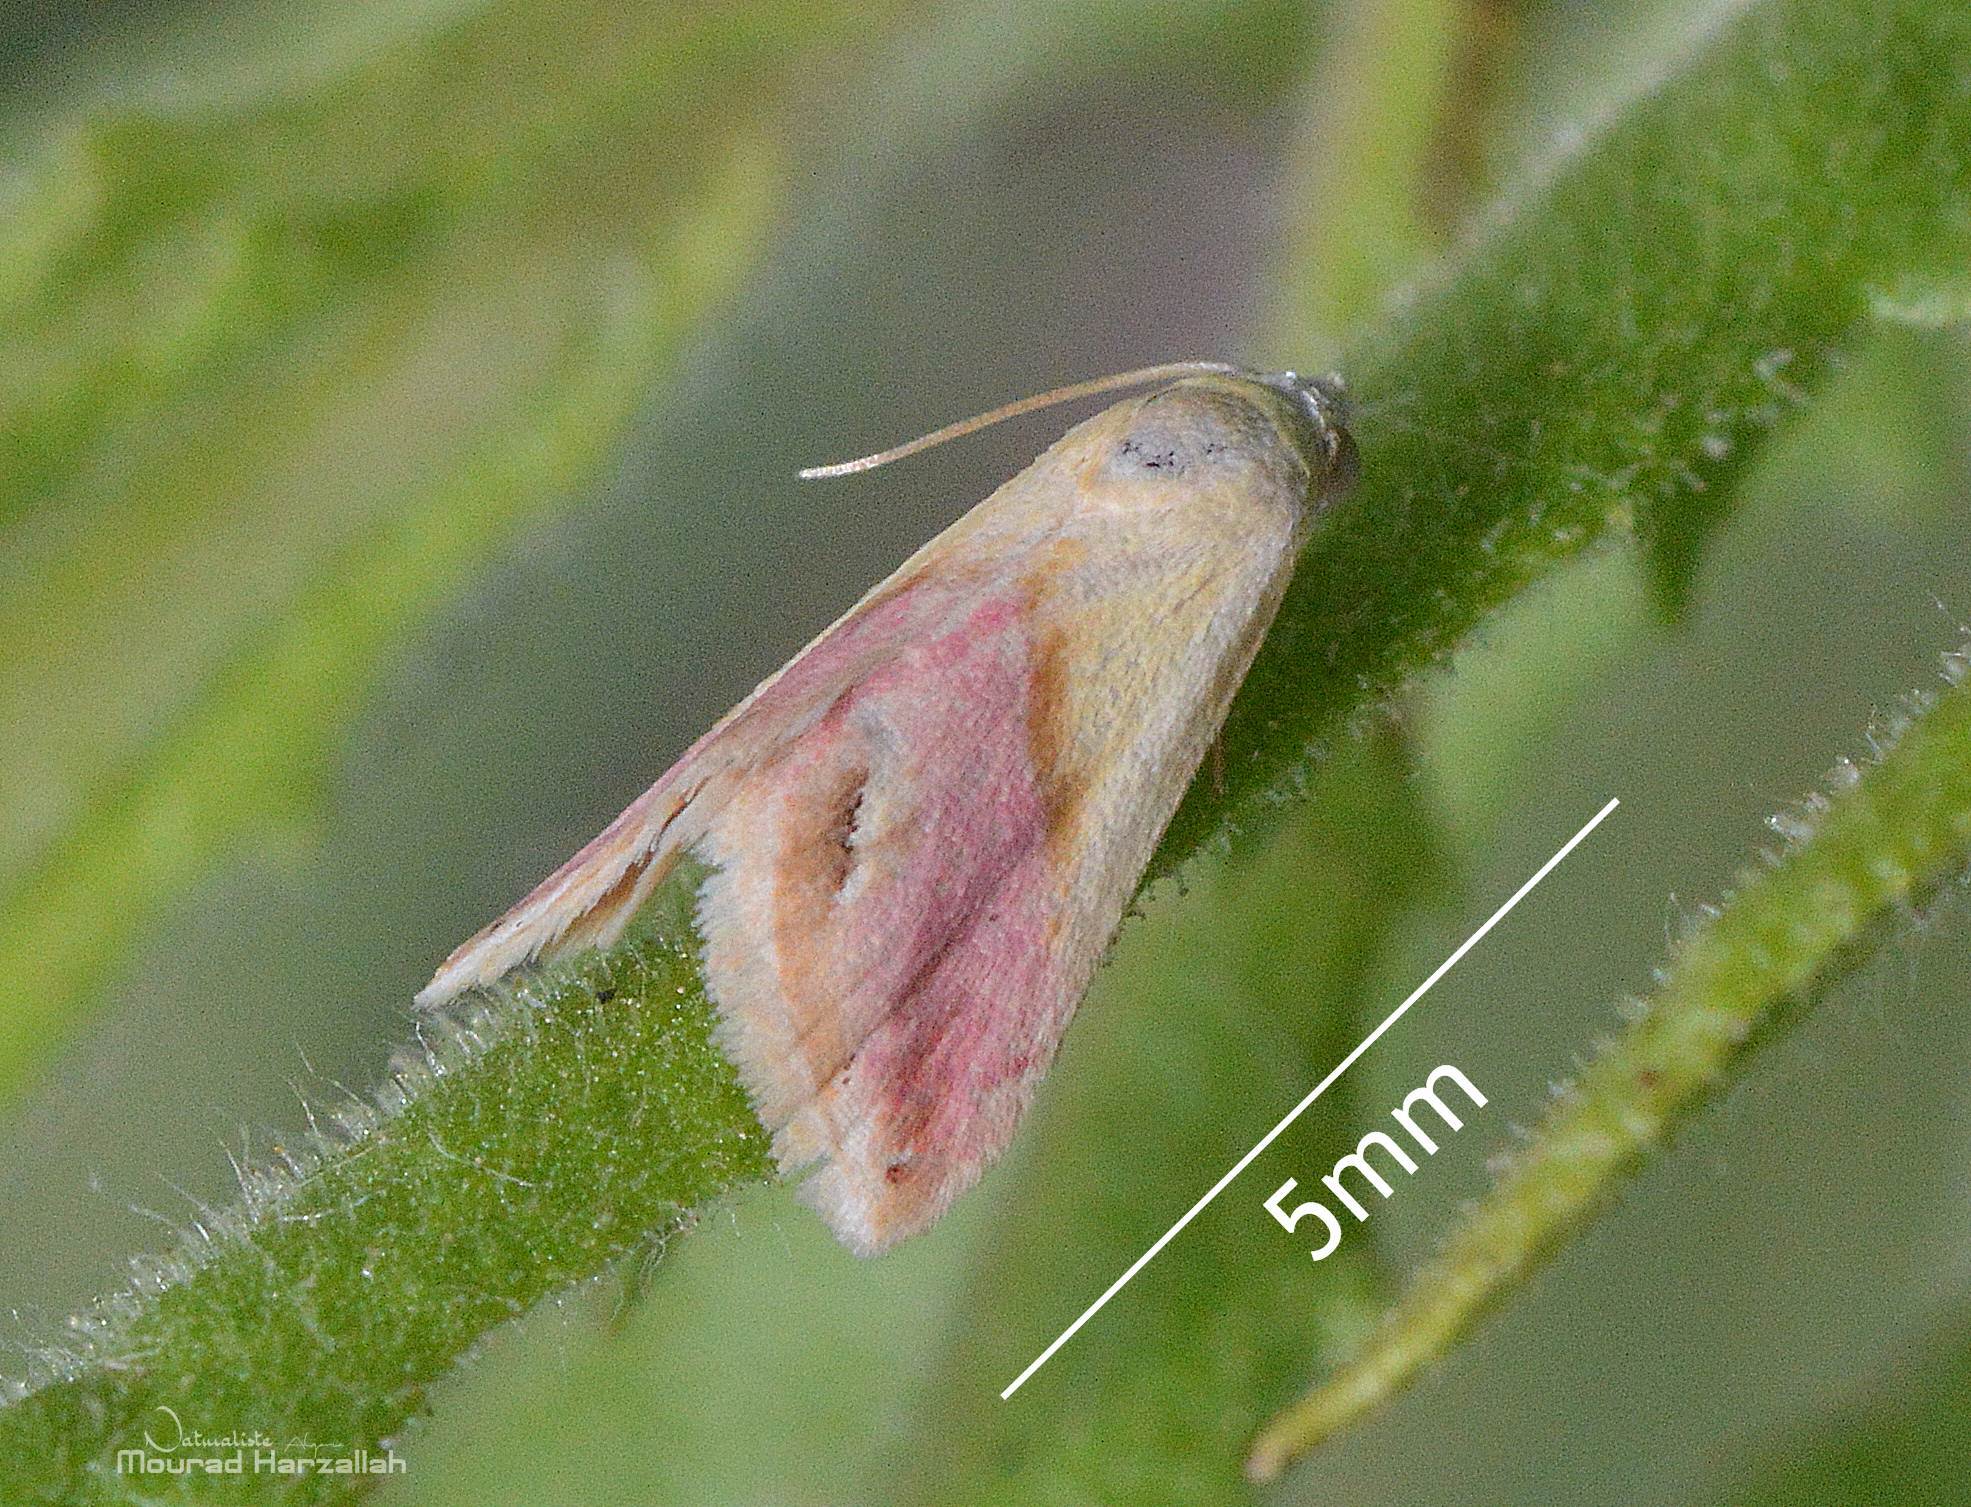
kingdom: Animalia
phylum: Arthropoda
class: Insecta
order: Lepidoptera
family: Noctuidae
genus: Eublemma
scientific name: Eublemma cochylioides
